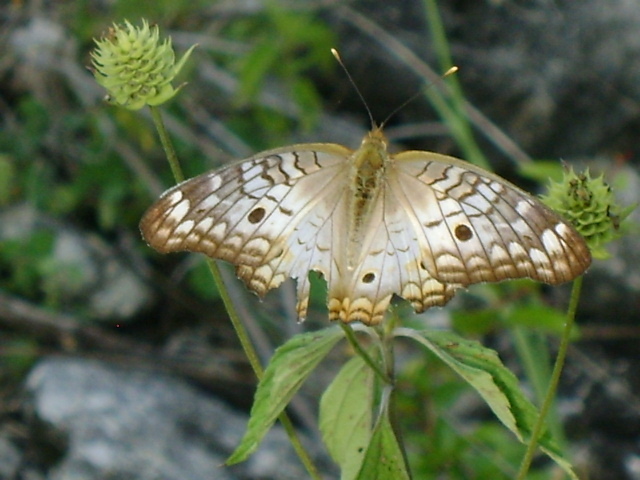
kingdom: Animalia
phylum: Arthropoda
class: Insecta
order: Lepidoptera
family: Nymphalidae
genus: Anartia
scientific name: Anartia jatrophae
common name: White peacock
